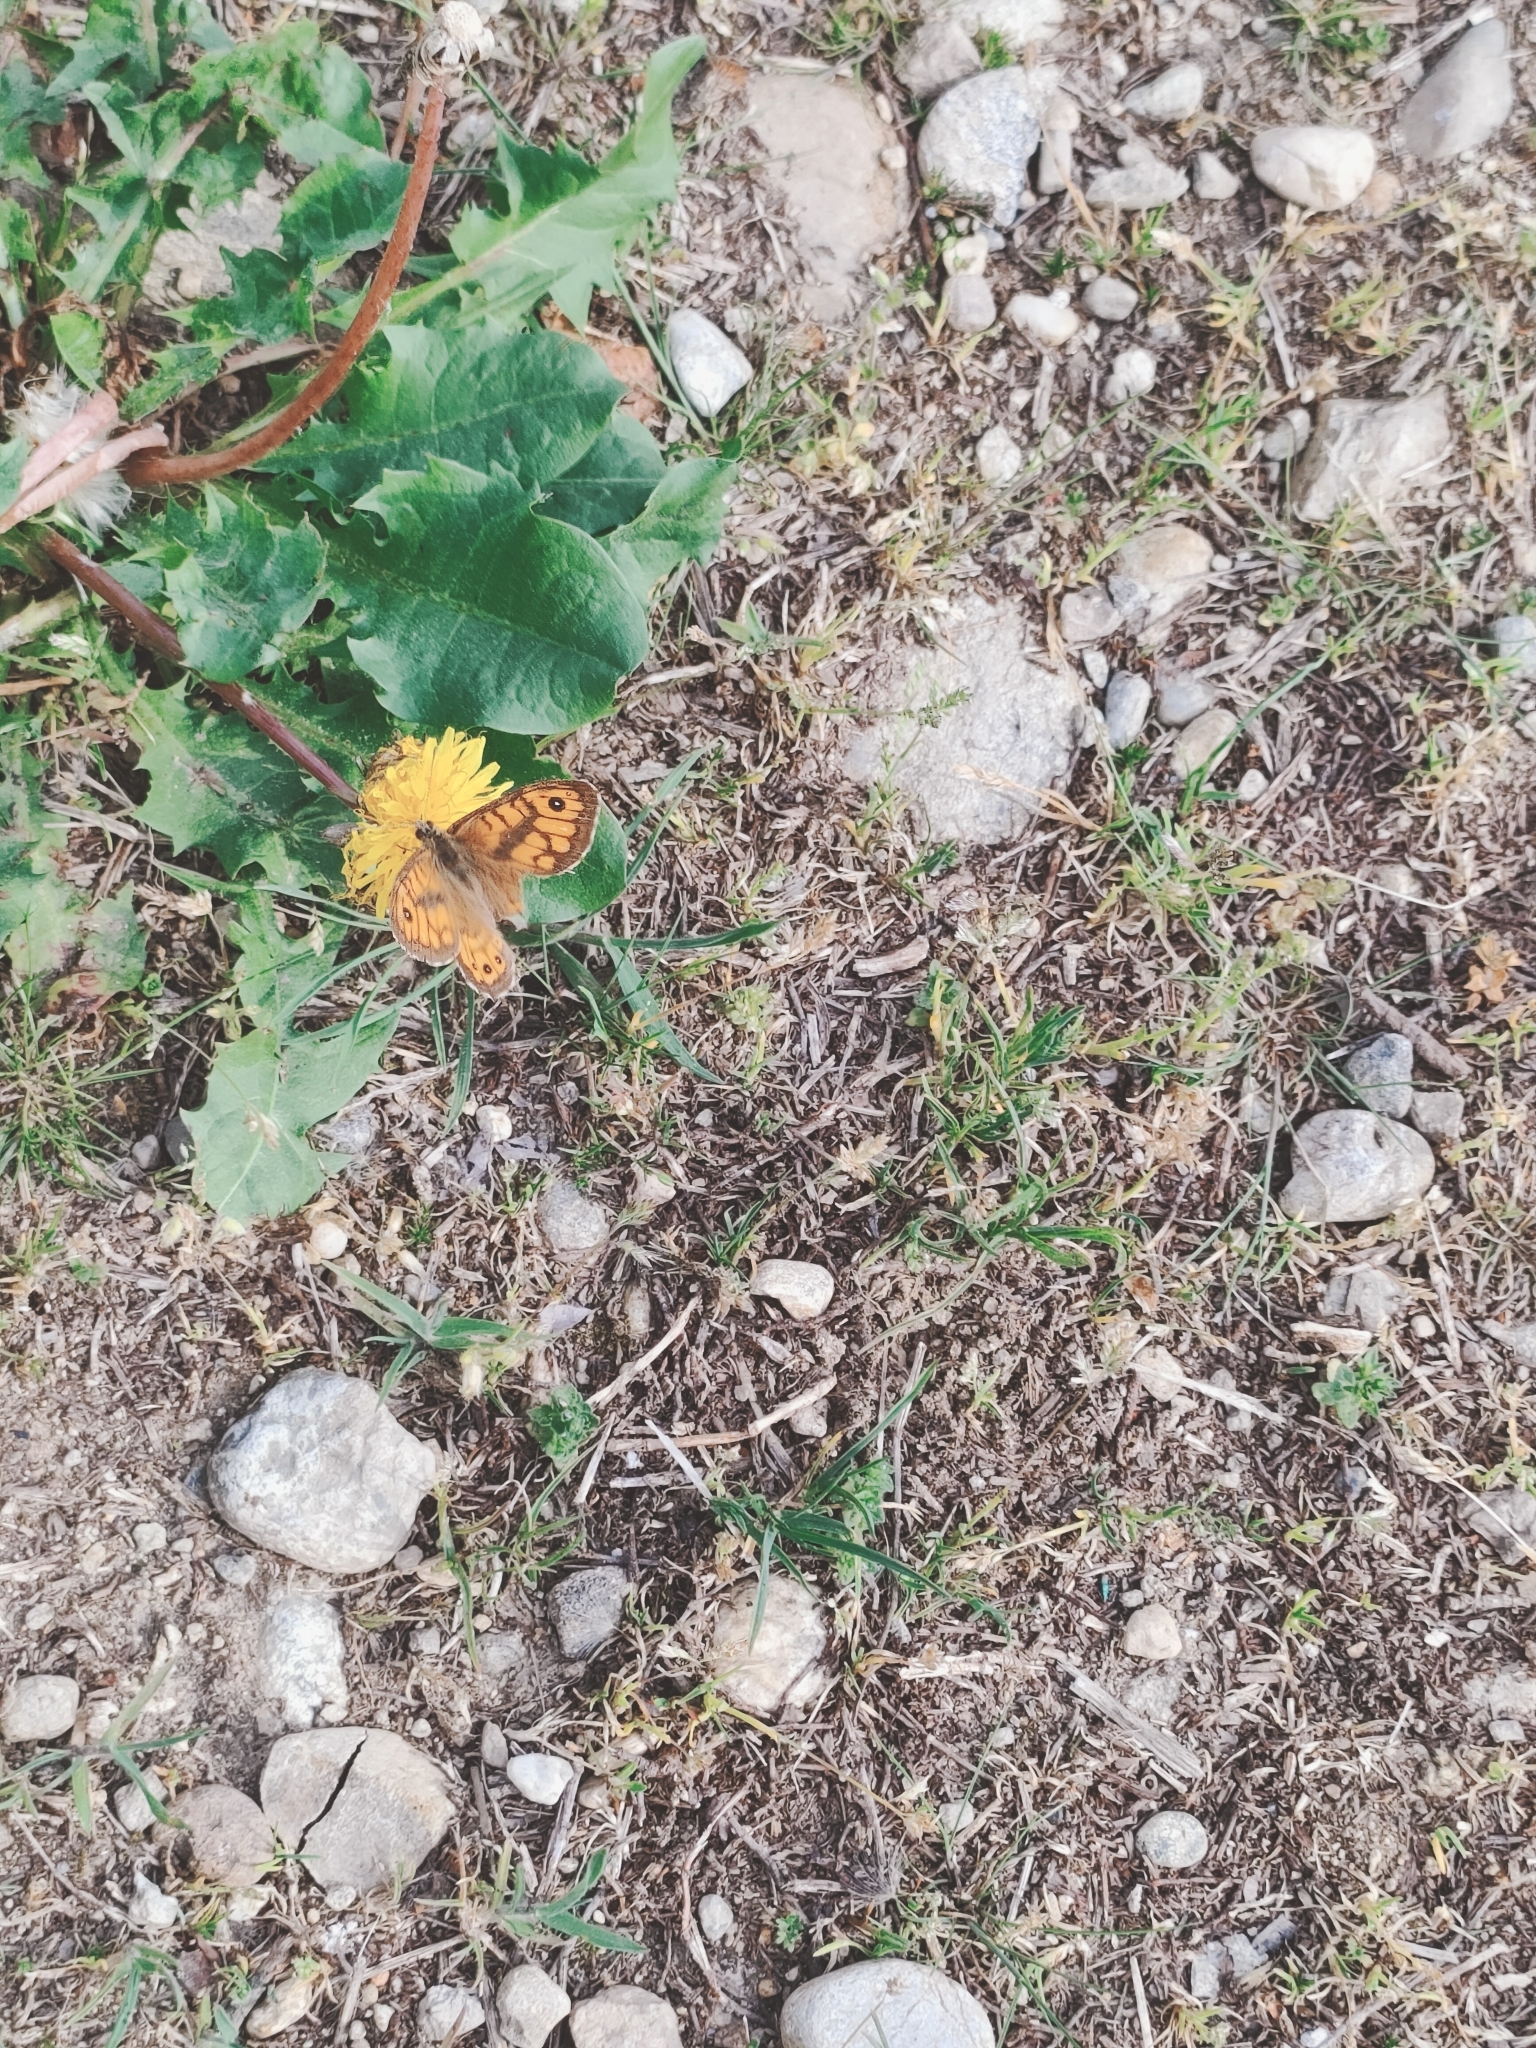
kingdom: Animalia
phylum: Arthropoda
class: Insecta
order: Lepidoptera
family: Nymphalidae
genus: Pararge
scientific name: Pararge Lasiommata megera
